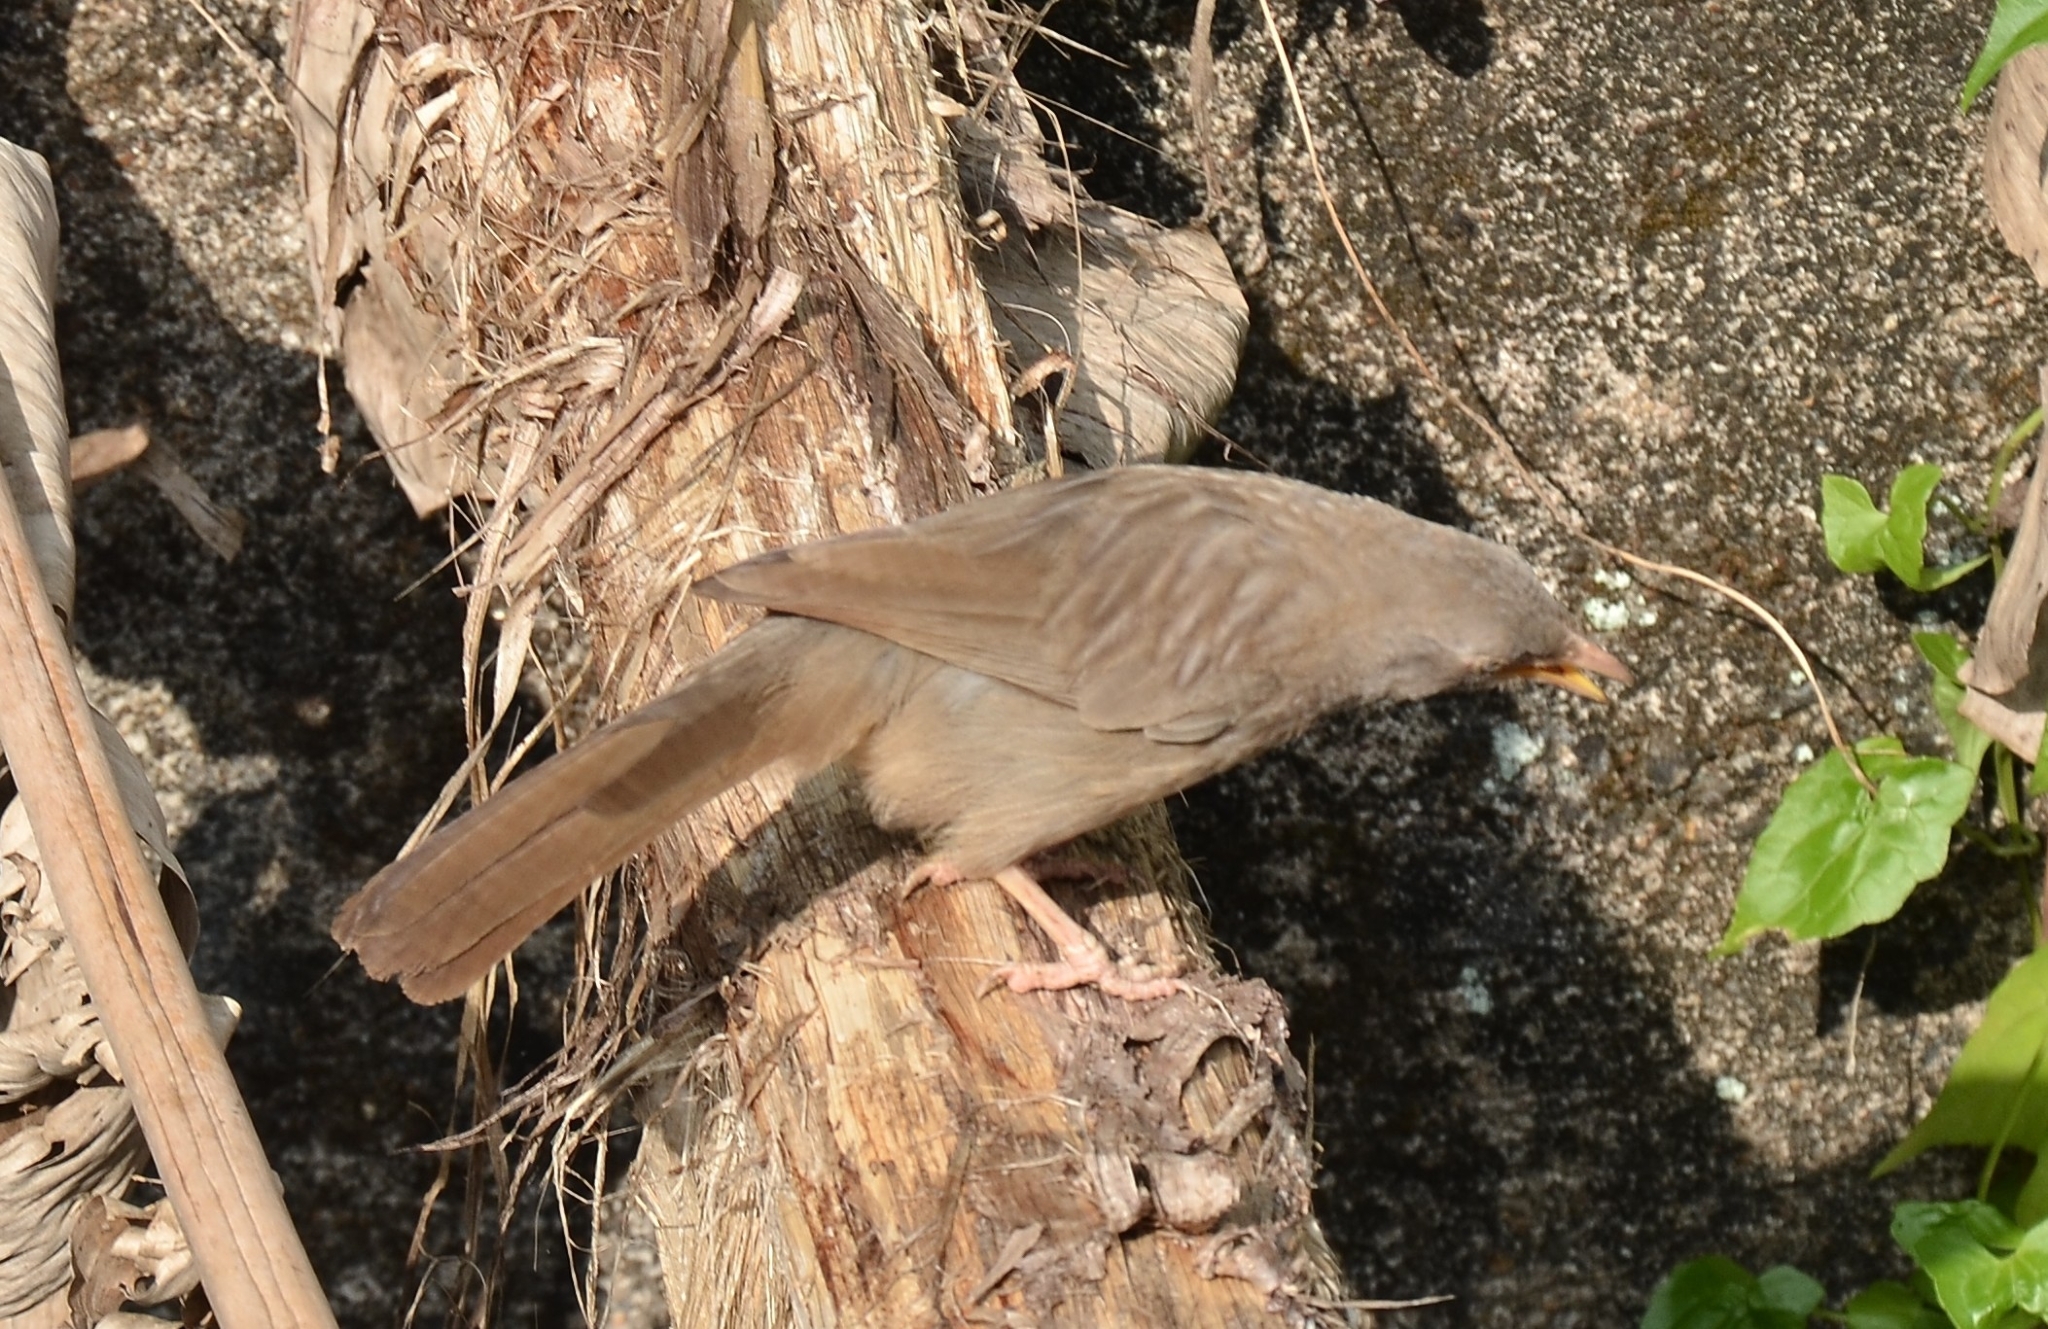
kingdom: Animalia
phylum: Chordata
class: Aves
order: Passeriformes
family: Leiothrichidae
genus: Turdoides
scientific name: Turdoides striata
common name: Jungle babbler
